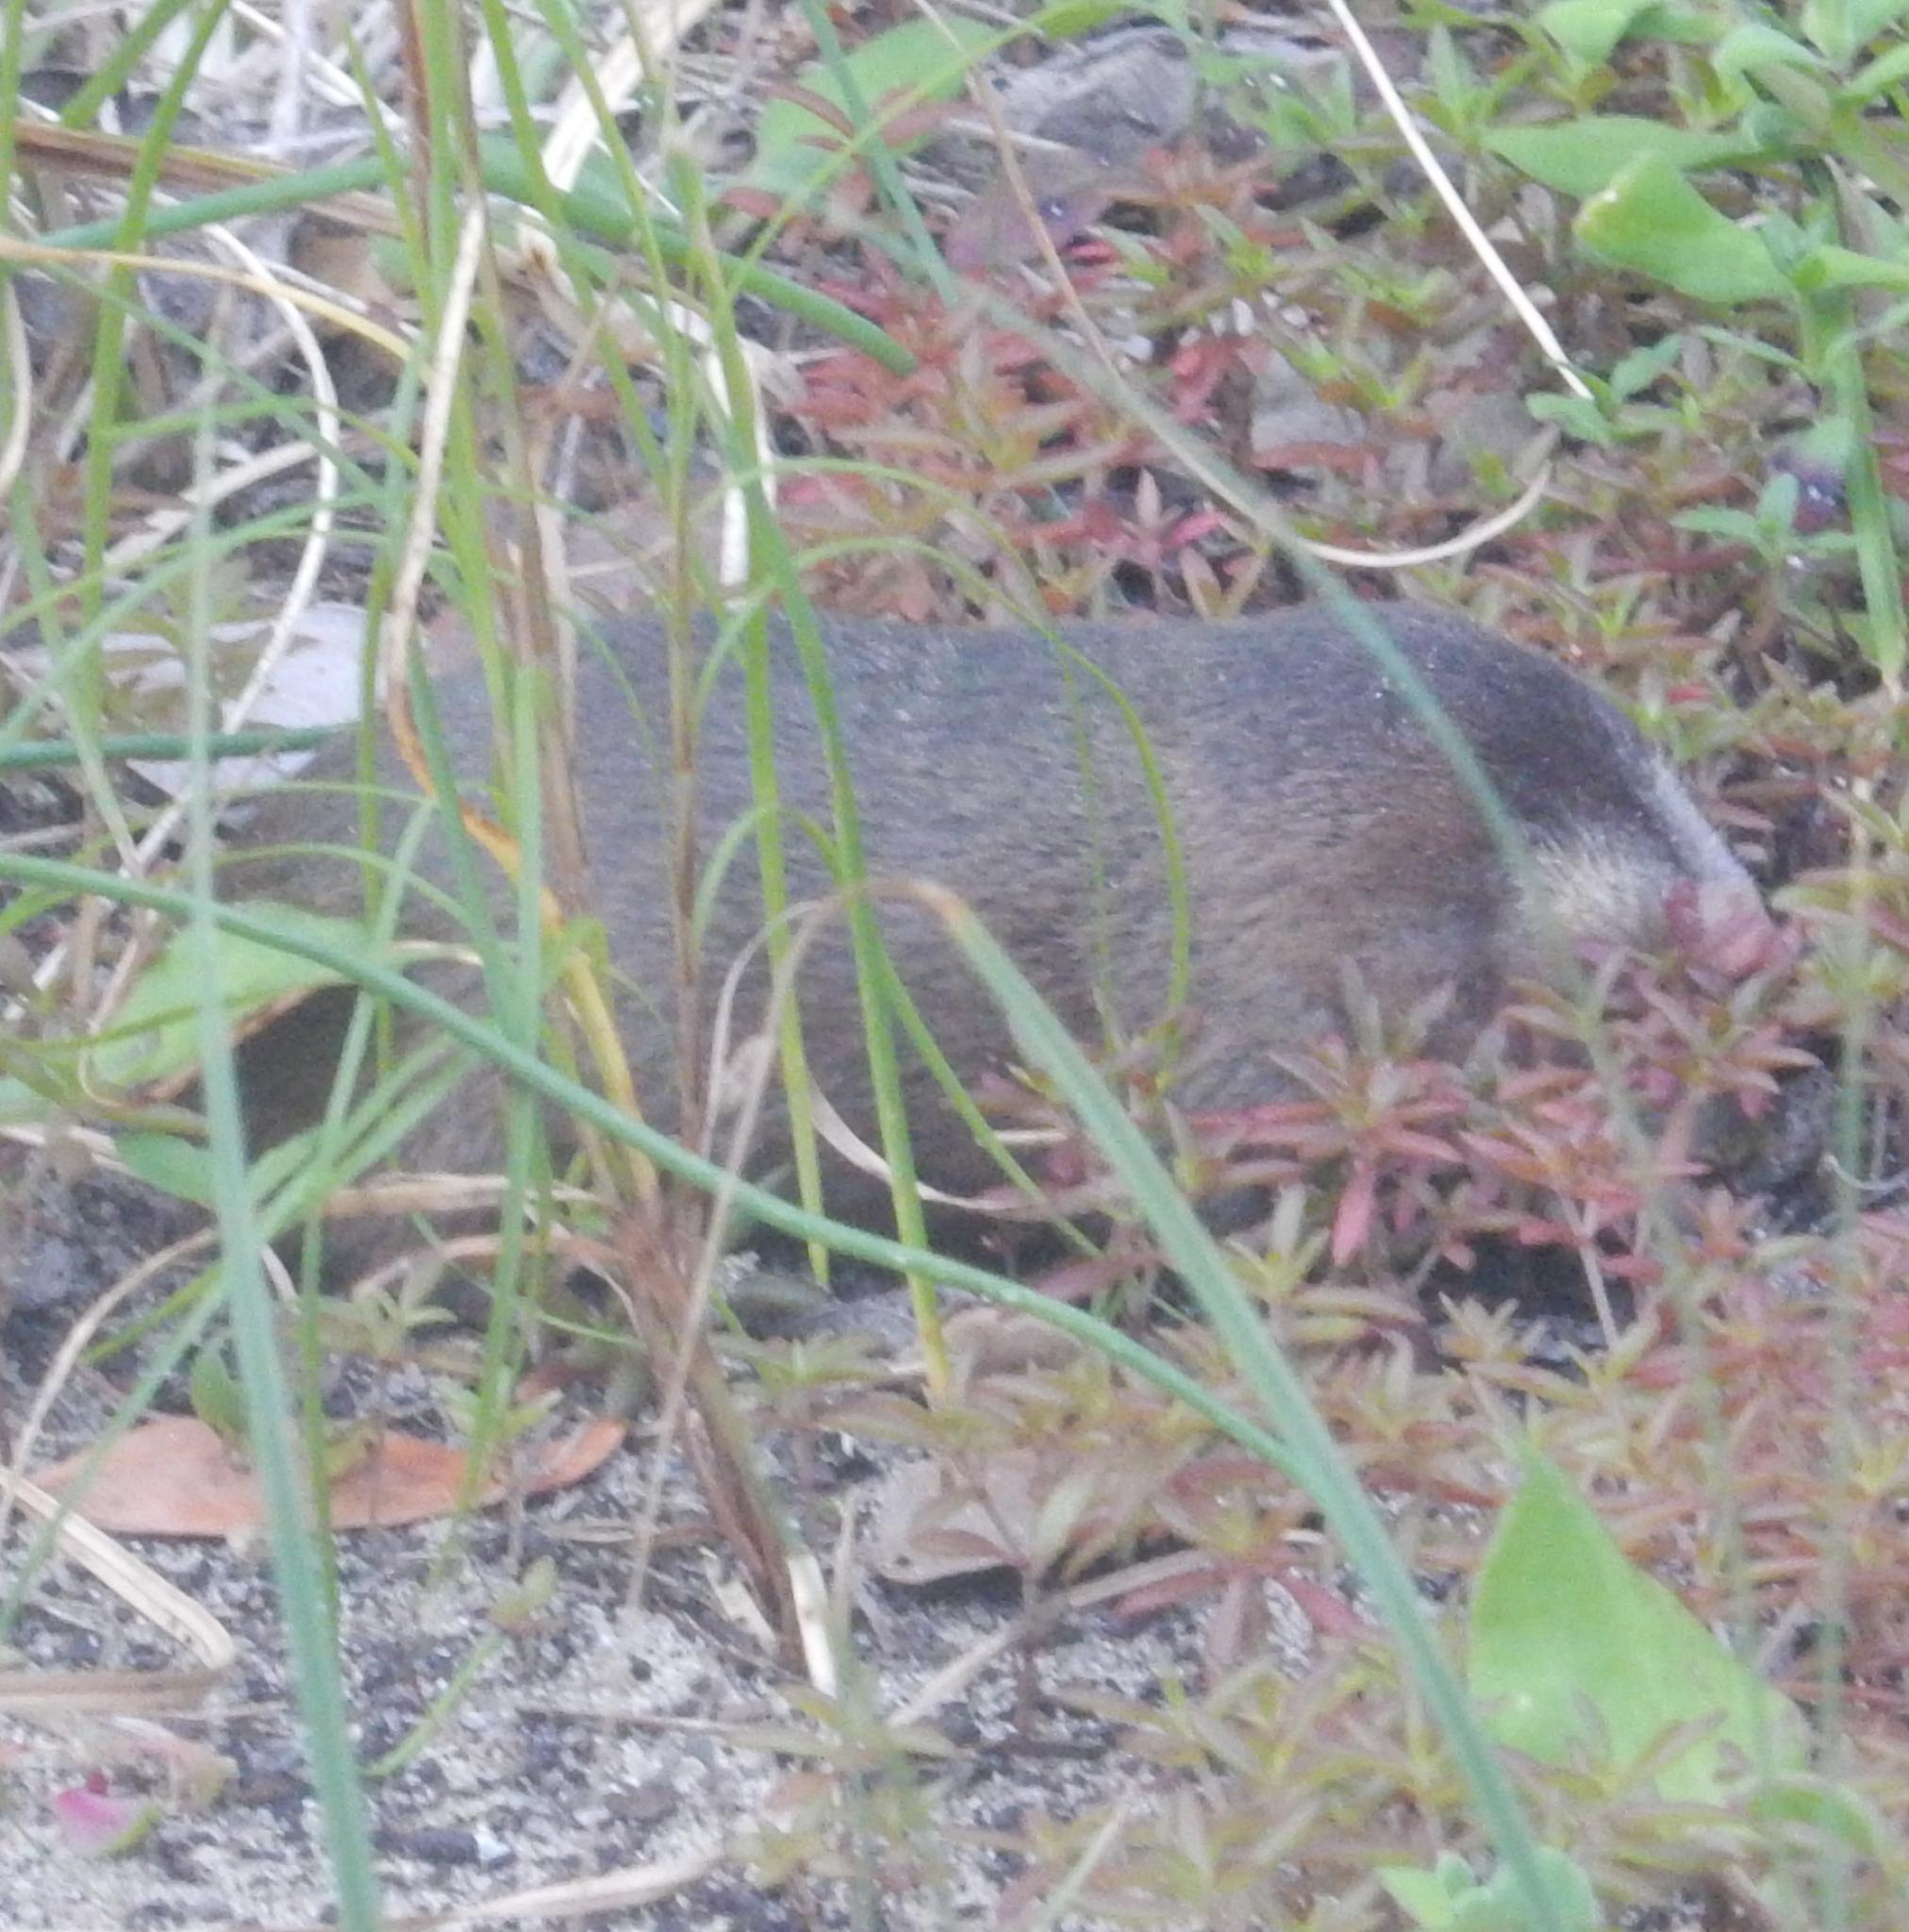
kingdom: Animalia
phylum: Chordata
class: Mammalia
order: Afrosoricida
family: Chrysochloridae
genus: Amblysomus
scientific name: Amblysomus hottentotus
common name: Hottentot golden mole
